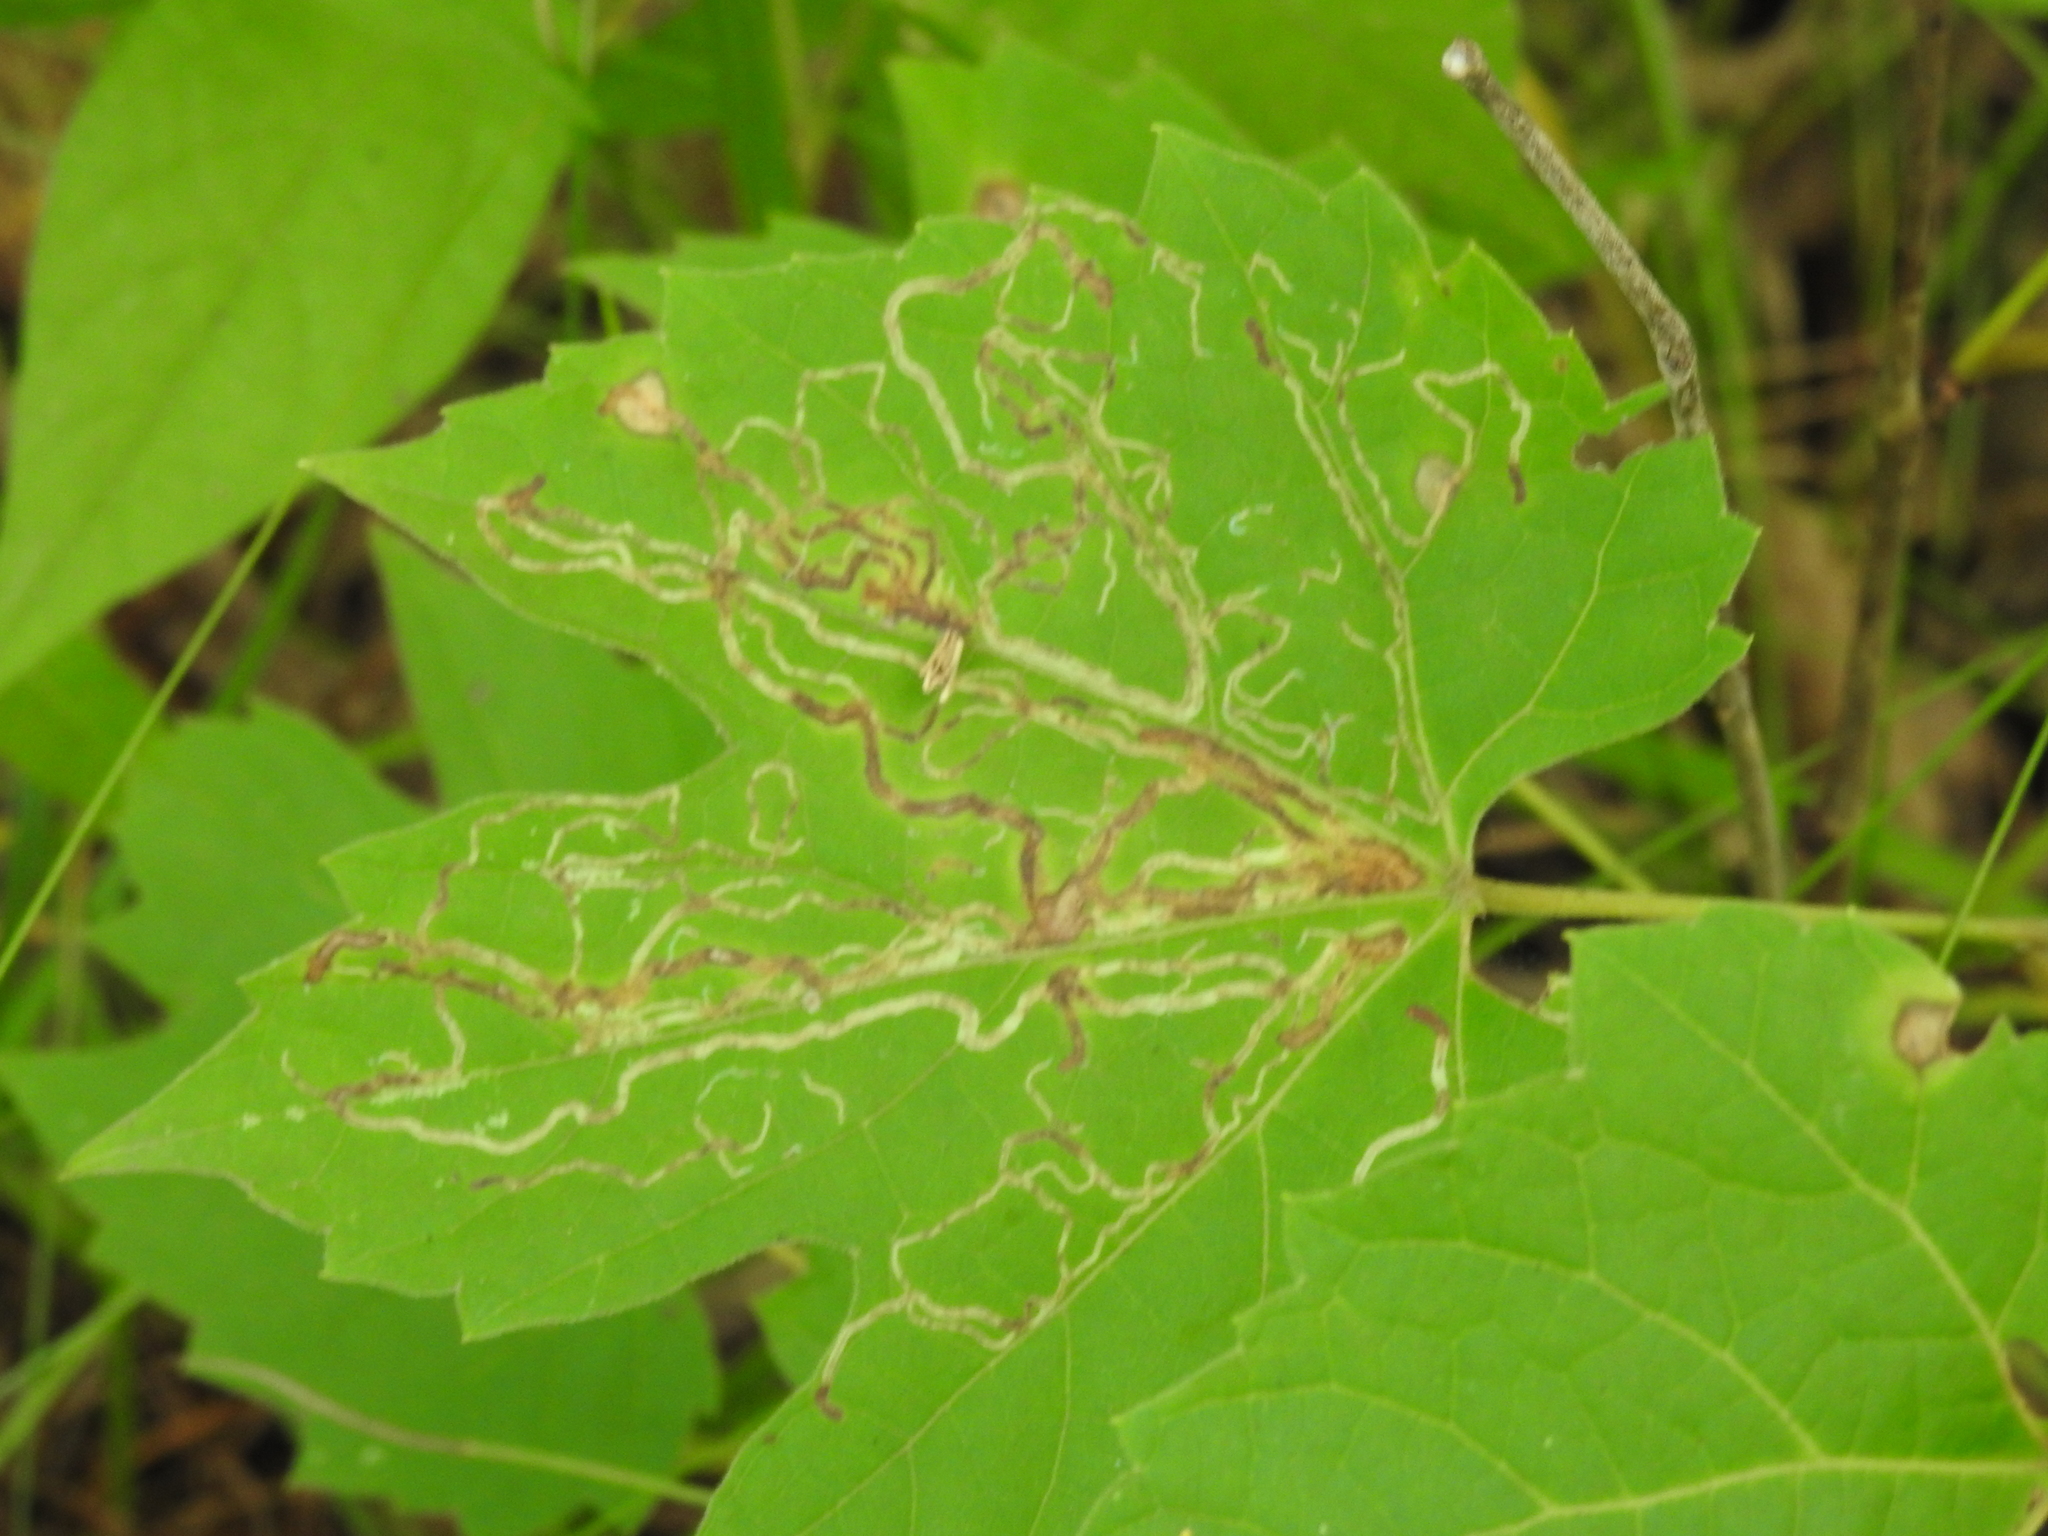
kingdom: Animalia
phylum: Arthropoda
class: Insecta
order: Lepidoptera
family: Gracillariidae
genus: Phyllocnistis
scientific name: Phyllocnistis vitifoliella
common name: Grape leaf-miner moth
